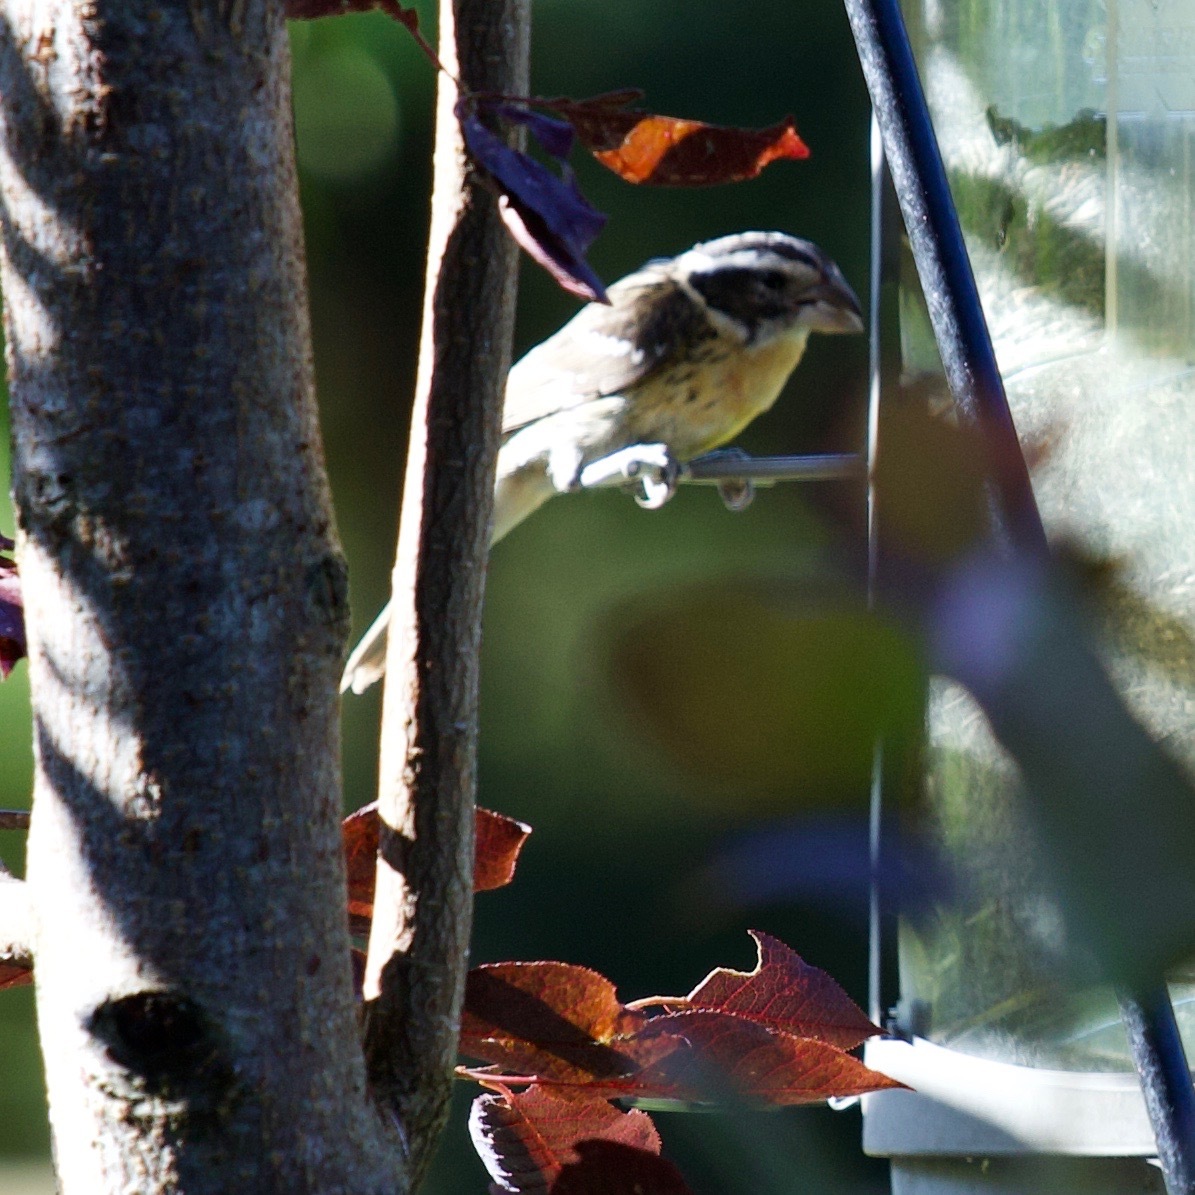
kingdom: Animalia
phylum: Chordata
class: Aves
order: Passeriformes
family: Cardinalidae
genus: Pheucticus
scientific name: Pheucticus melanocephalus
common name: Black-headed grosbeak
